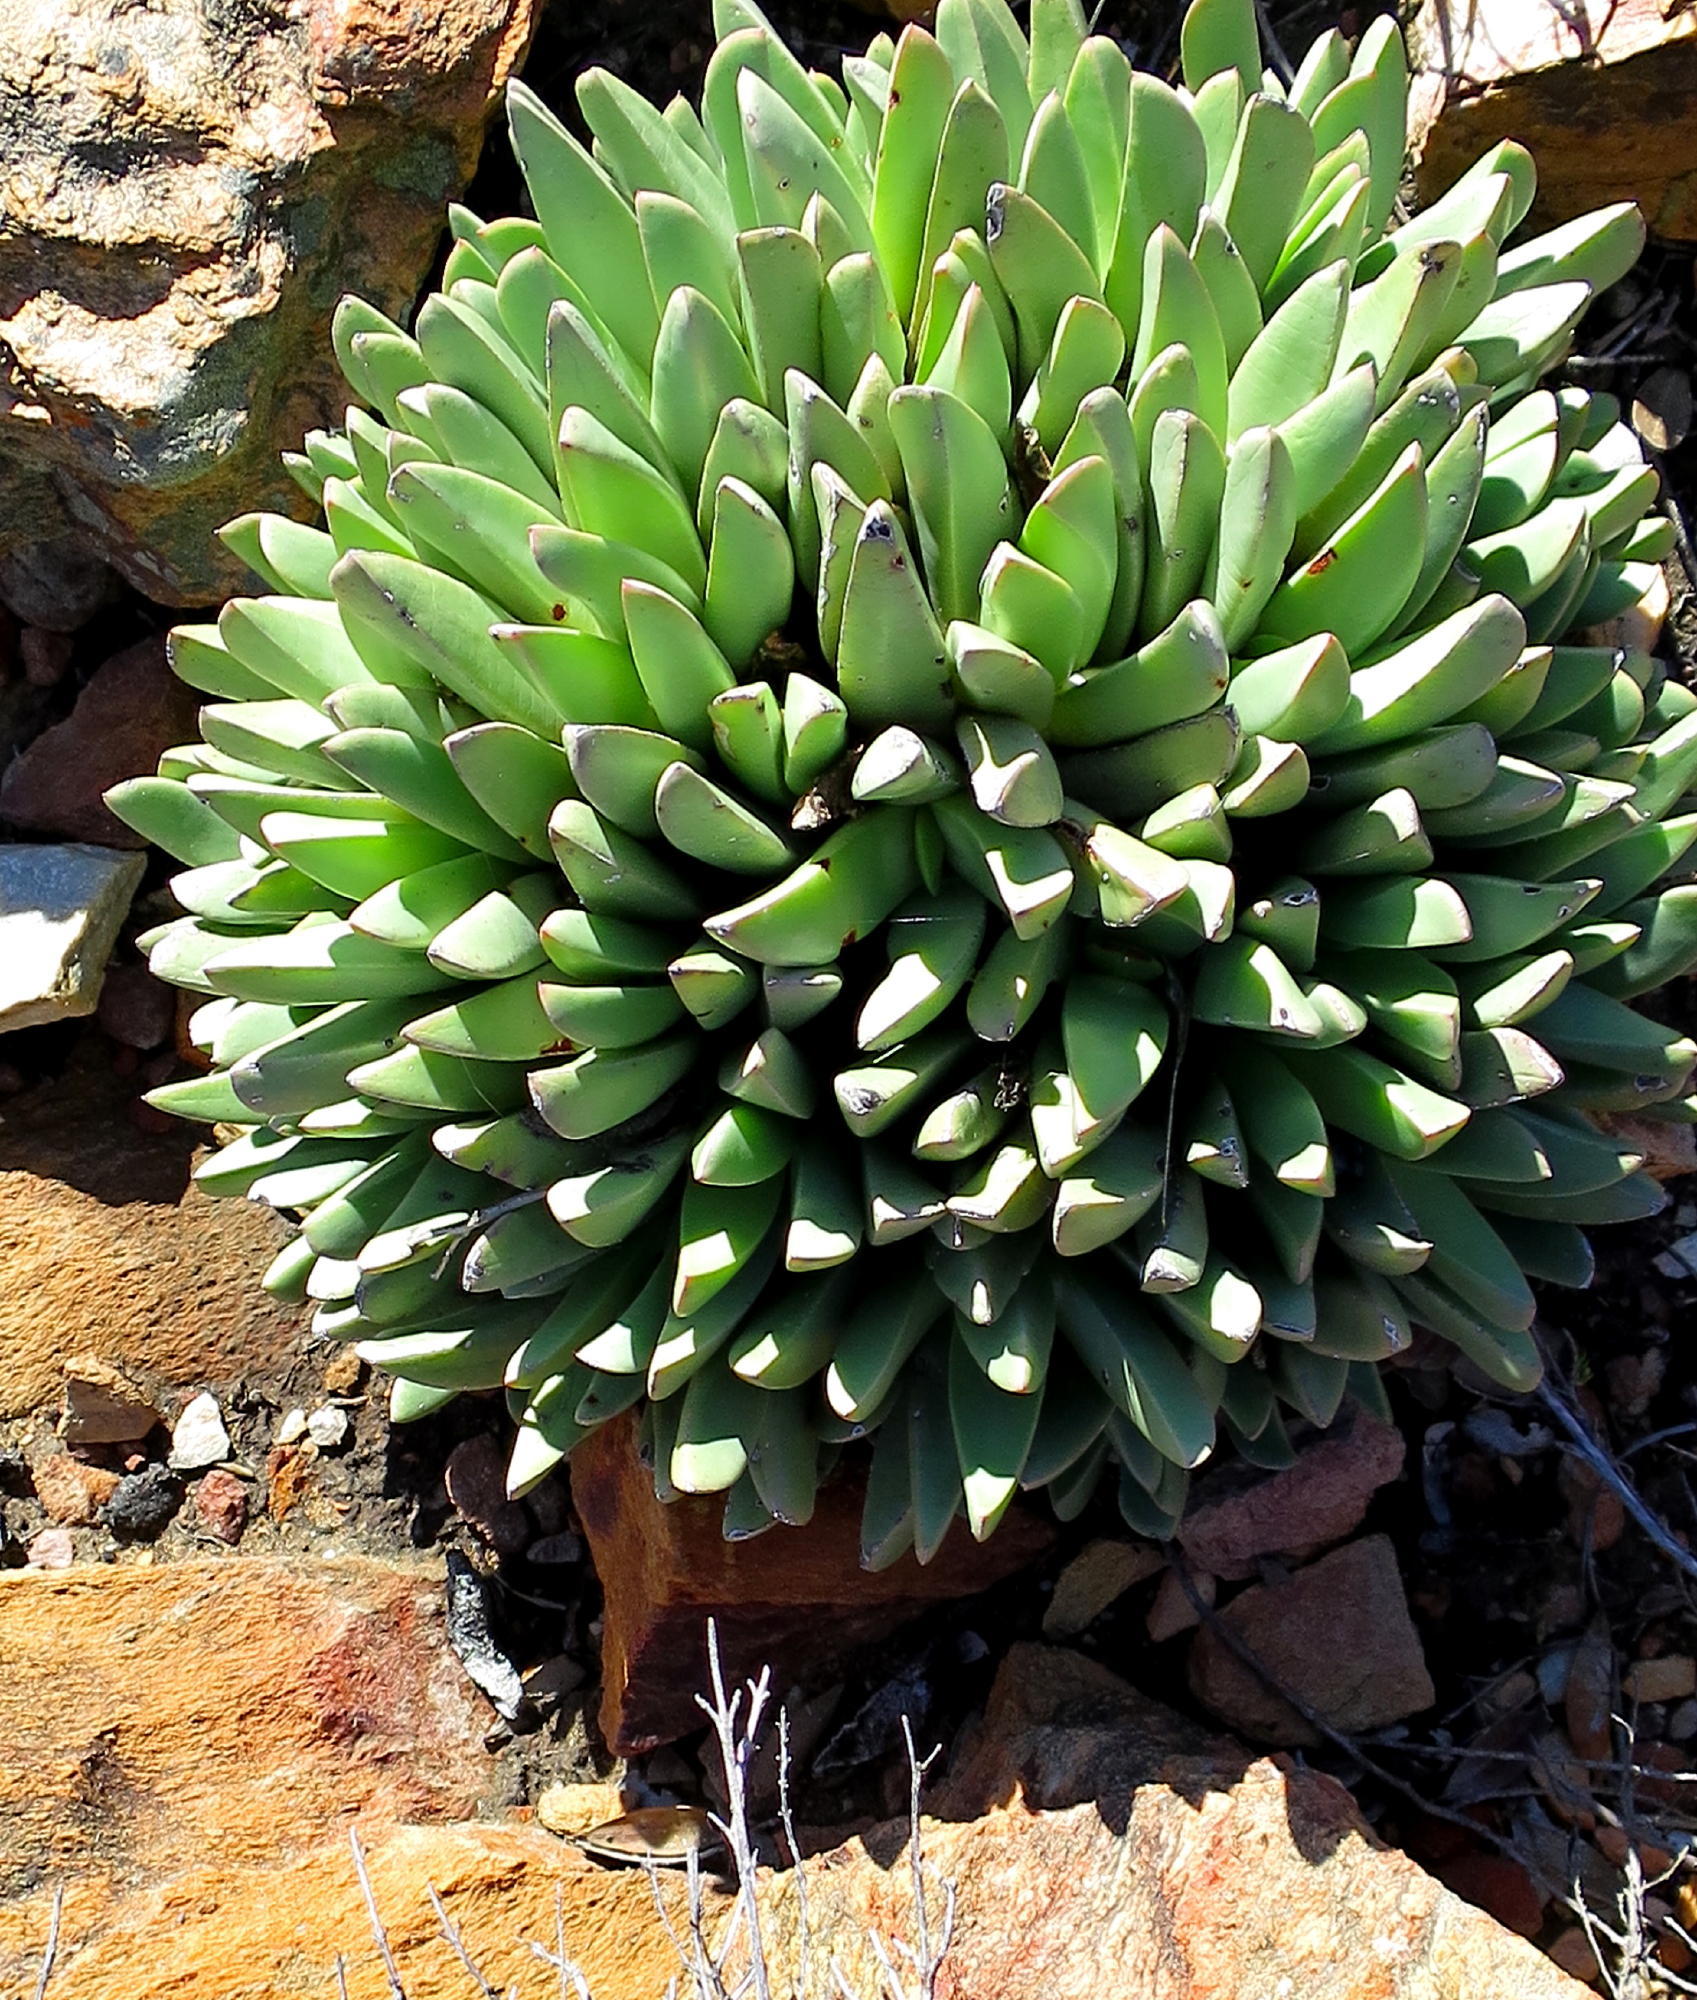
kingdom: Plantae
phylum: Tracheophyta
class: Magnoliopsida
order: Caryophyllales
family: Aizoaceae
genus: Machairophyllum
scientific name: Machairophyllum albidum
